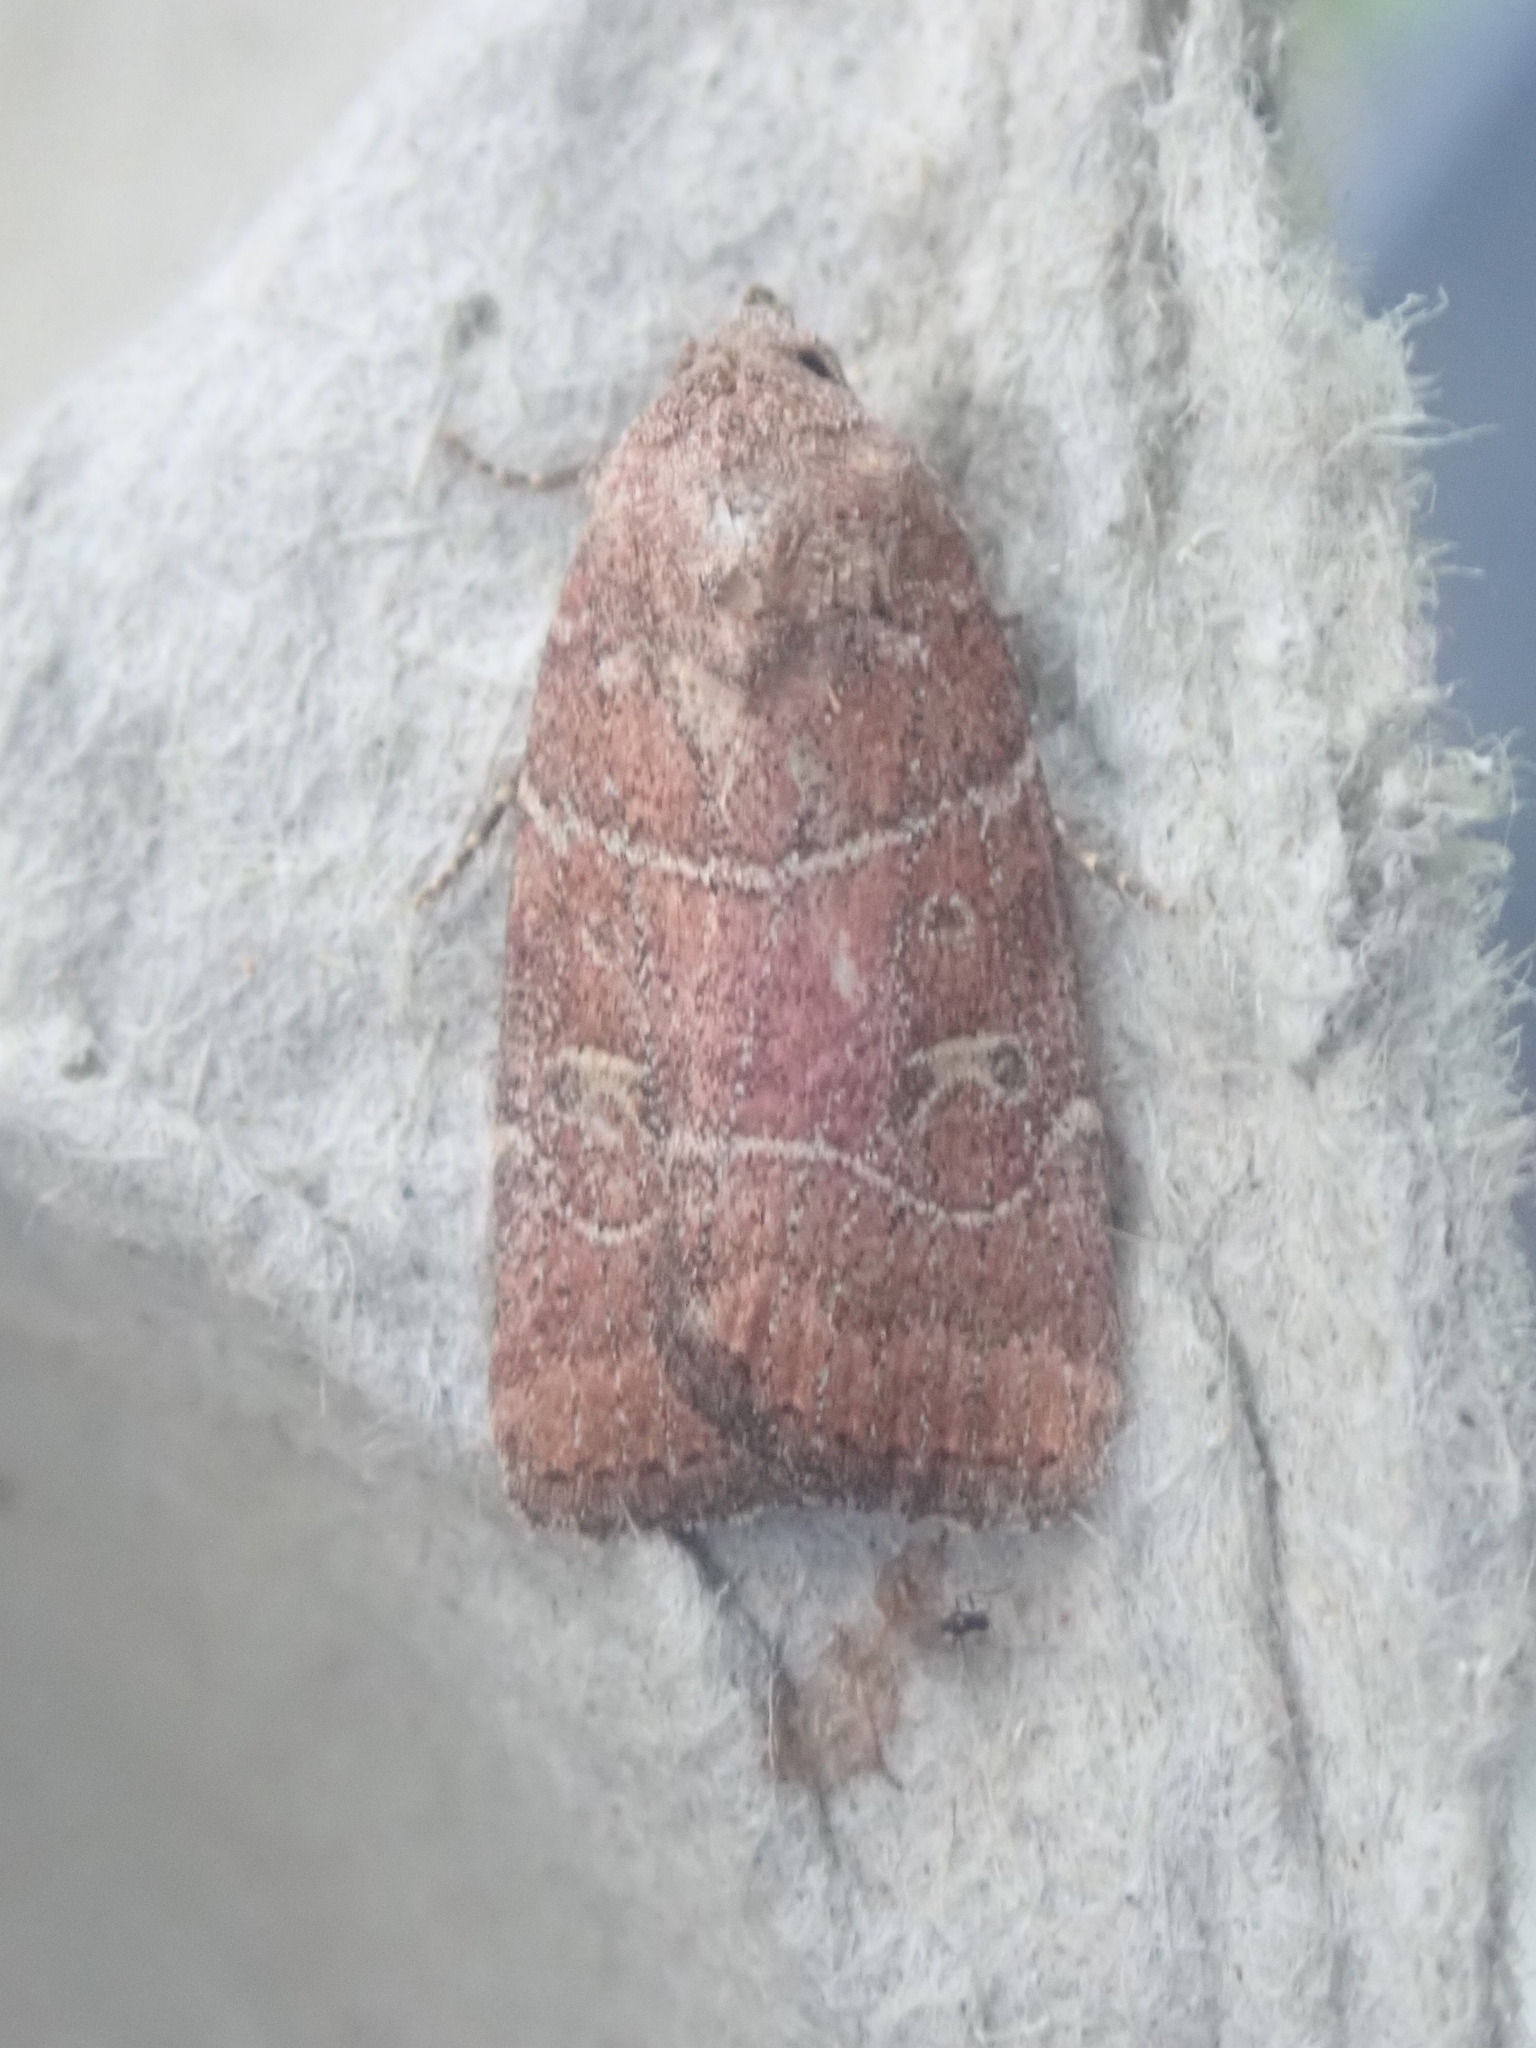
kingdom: Animalia
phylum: Arthropoda
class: Insecta
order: Lepidoptera
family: Noctuidae
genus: Elaphria
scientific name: Elaphria grata
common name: Grateful midget moth
